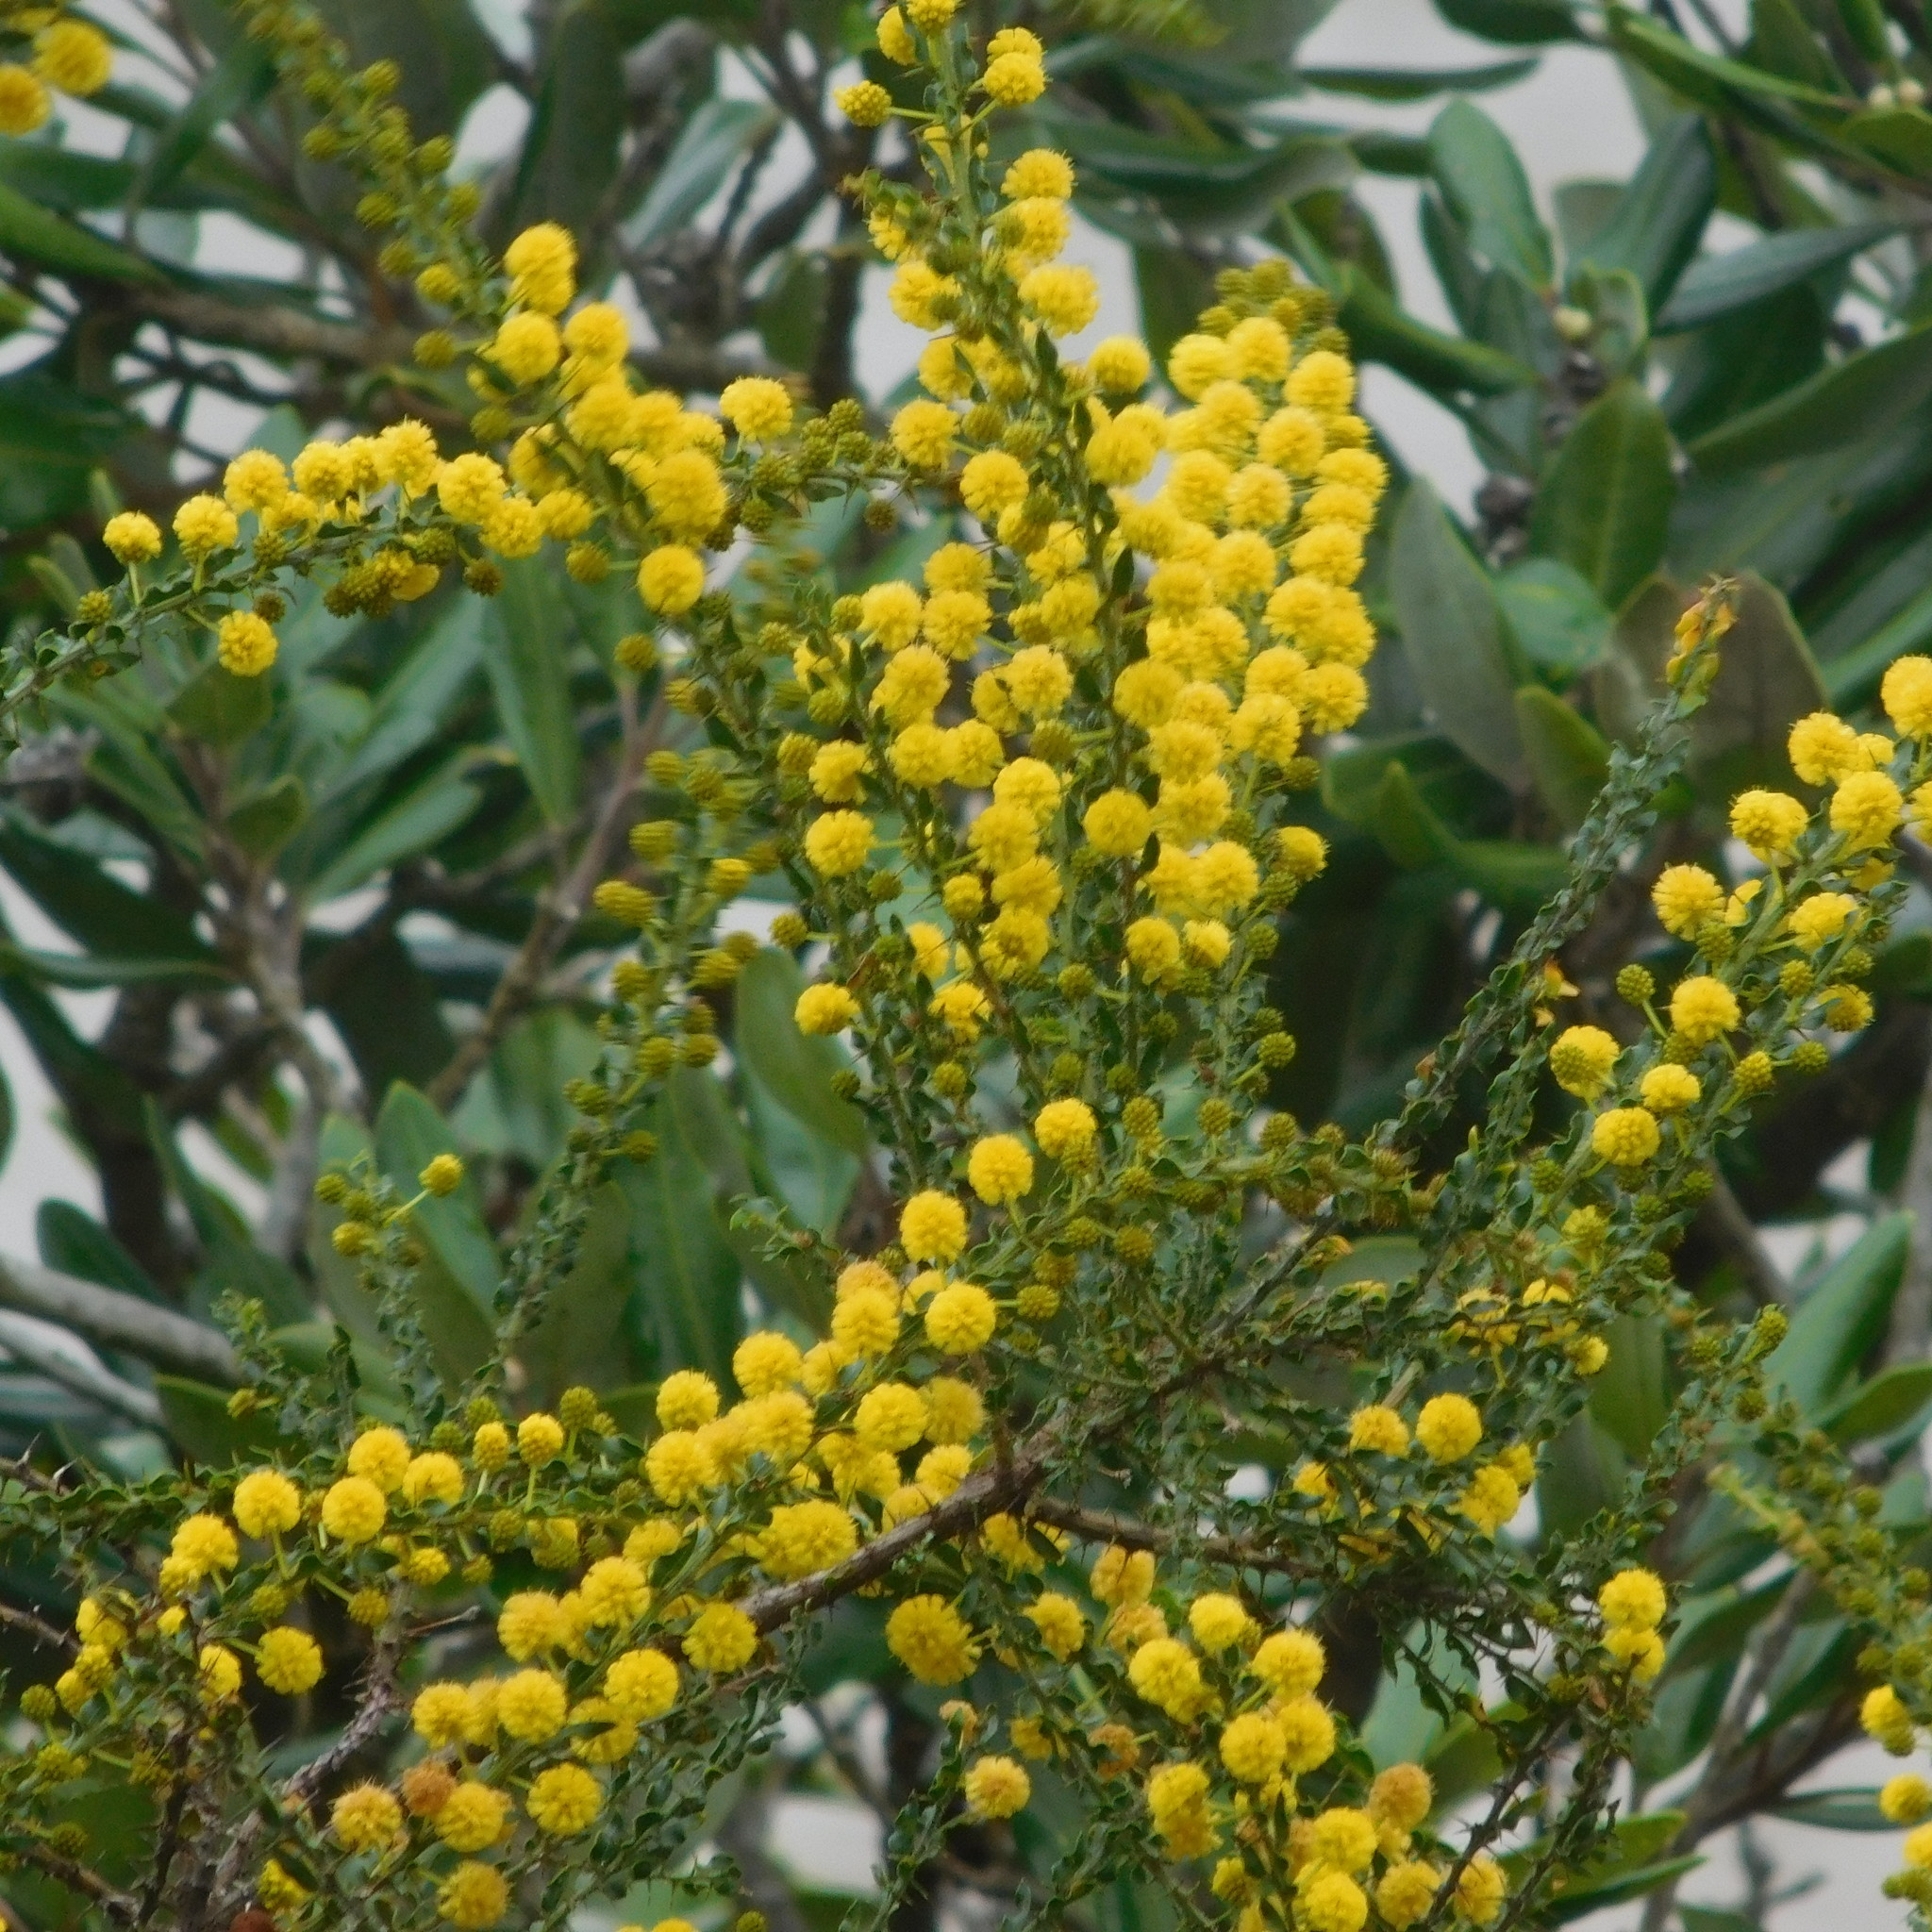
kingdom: Plantae
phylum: Tracheophyta
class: Magnoliopsida
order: Fabales
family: Fabaceae
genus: Acacia
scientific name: Acacia paradoxa
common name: Paradox acacia
